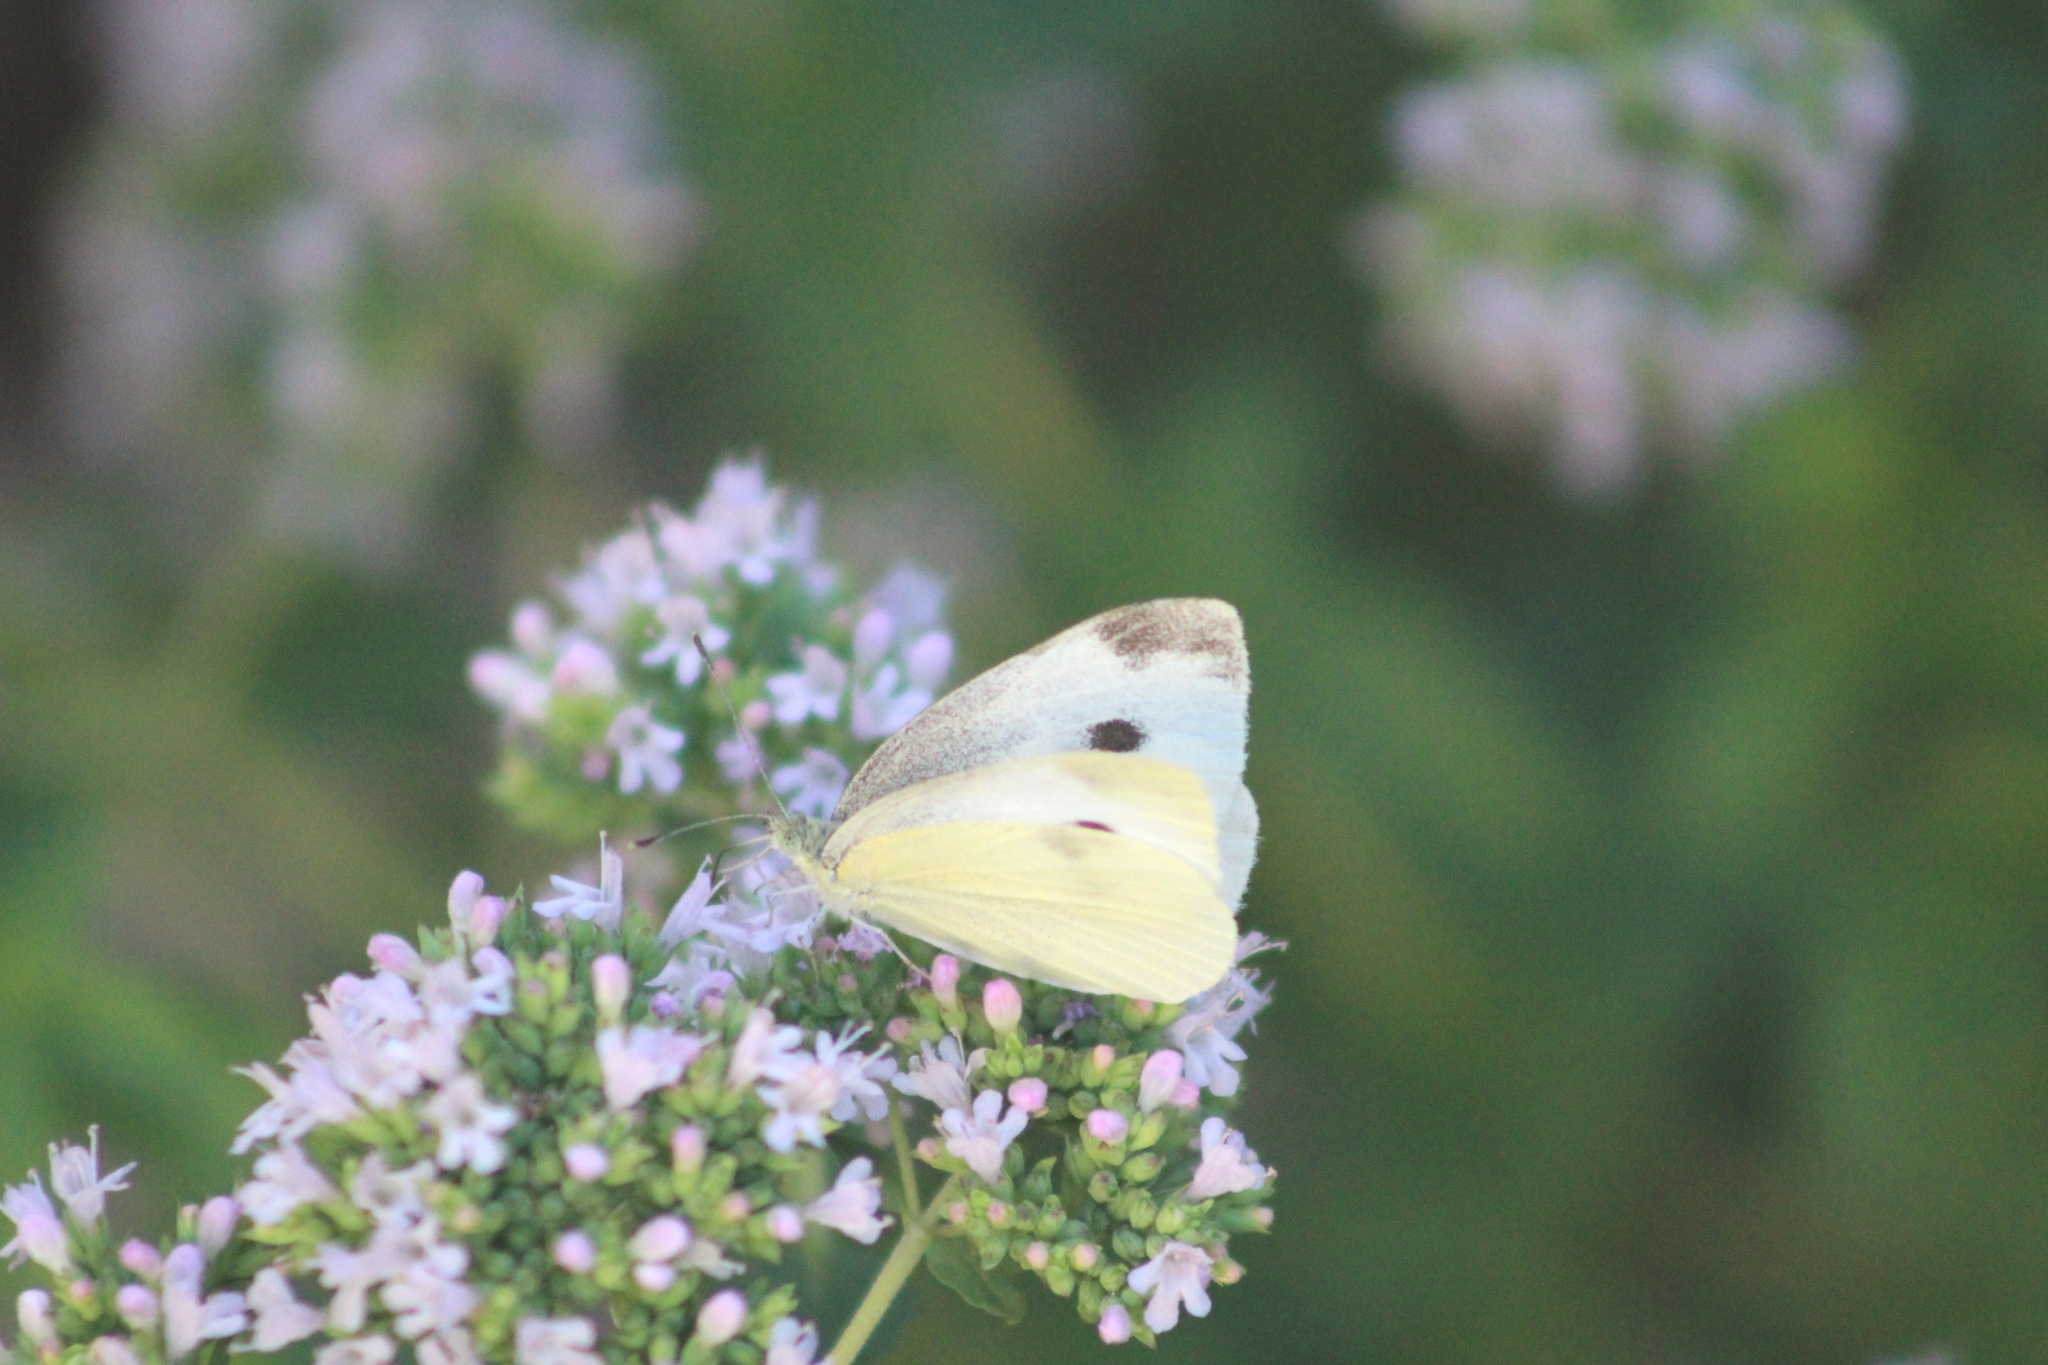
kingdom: Animalia
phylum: Arthropoda
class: Insecta
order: Lepidoptera
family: Pieridae
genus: Pieris
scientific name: Pieris rapae
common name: Small white
